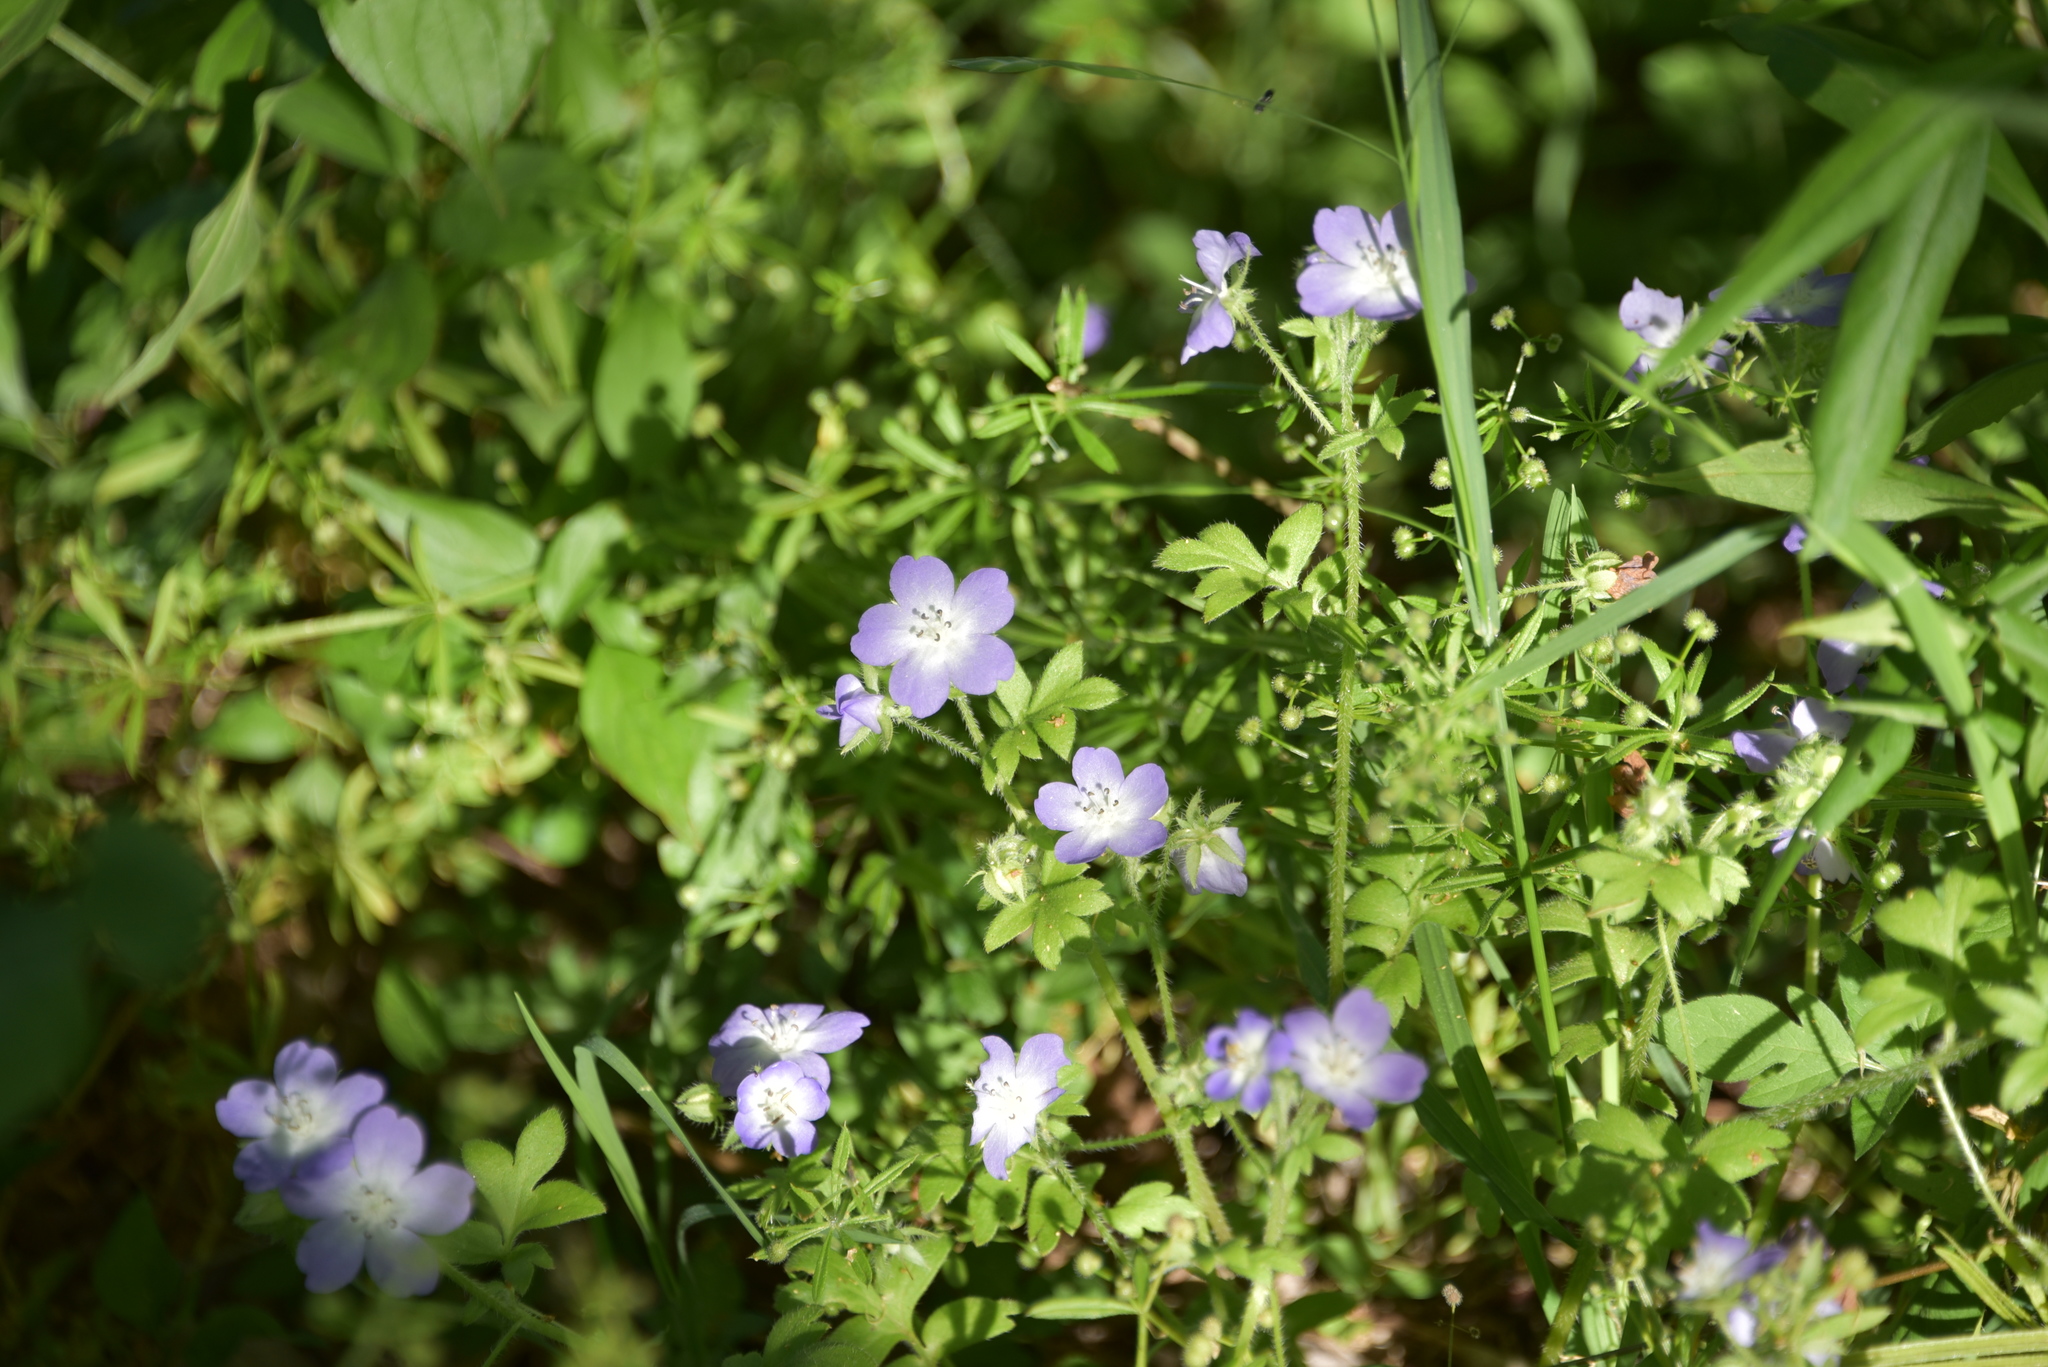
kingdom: Plantae
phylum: Tracheophyta
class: Magnoliopsida
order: Boraginales
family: Hydrophyllaceae
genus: Nemophila
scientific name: Nemophila phacelioides
